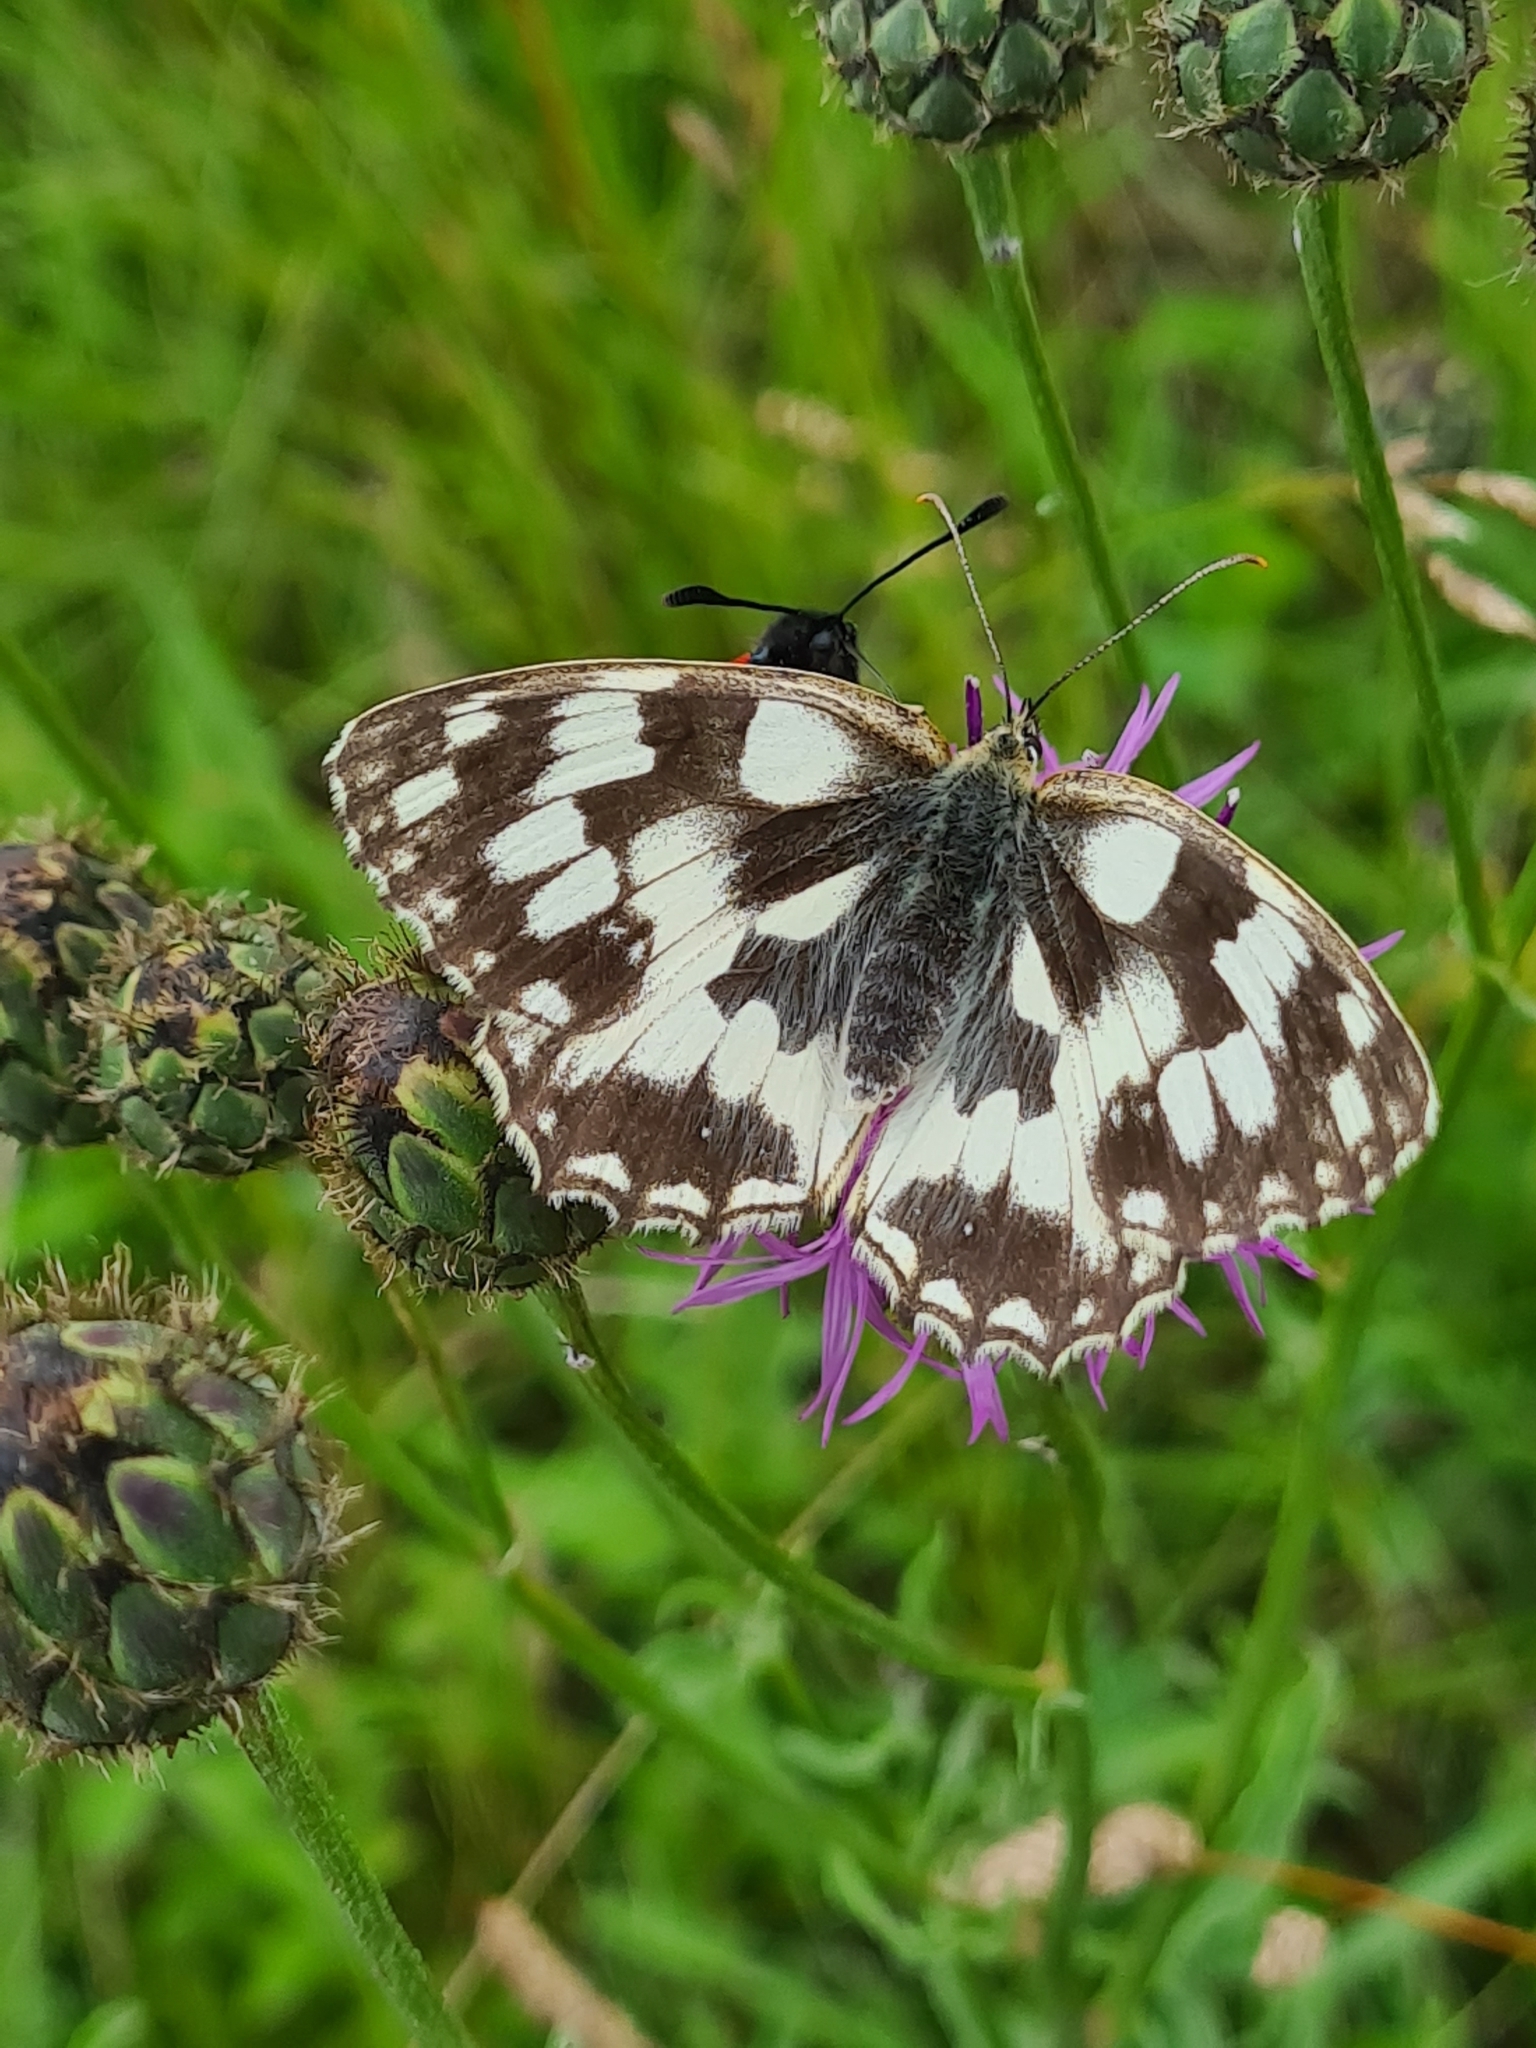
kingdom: Animalia
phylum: Arthropoda
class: Insecta
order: Lepidoptera
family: Nymphalidae
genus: Melanargia
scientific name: Melanargia galathea
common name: Marbled white
